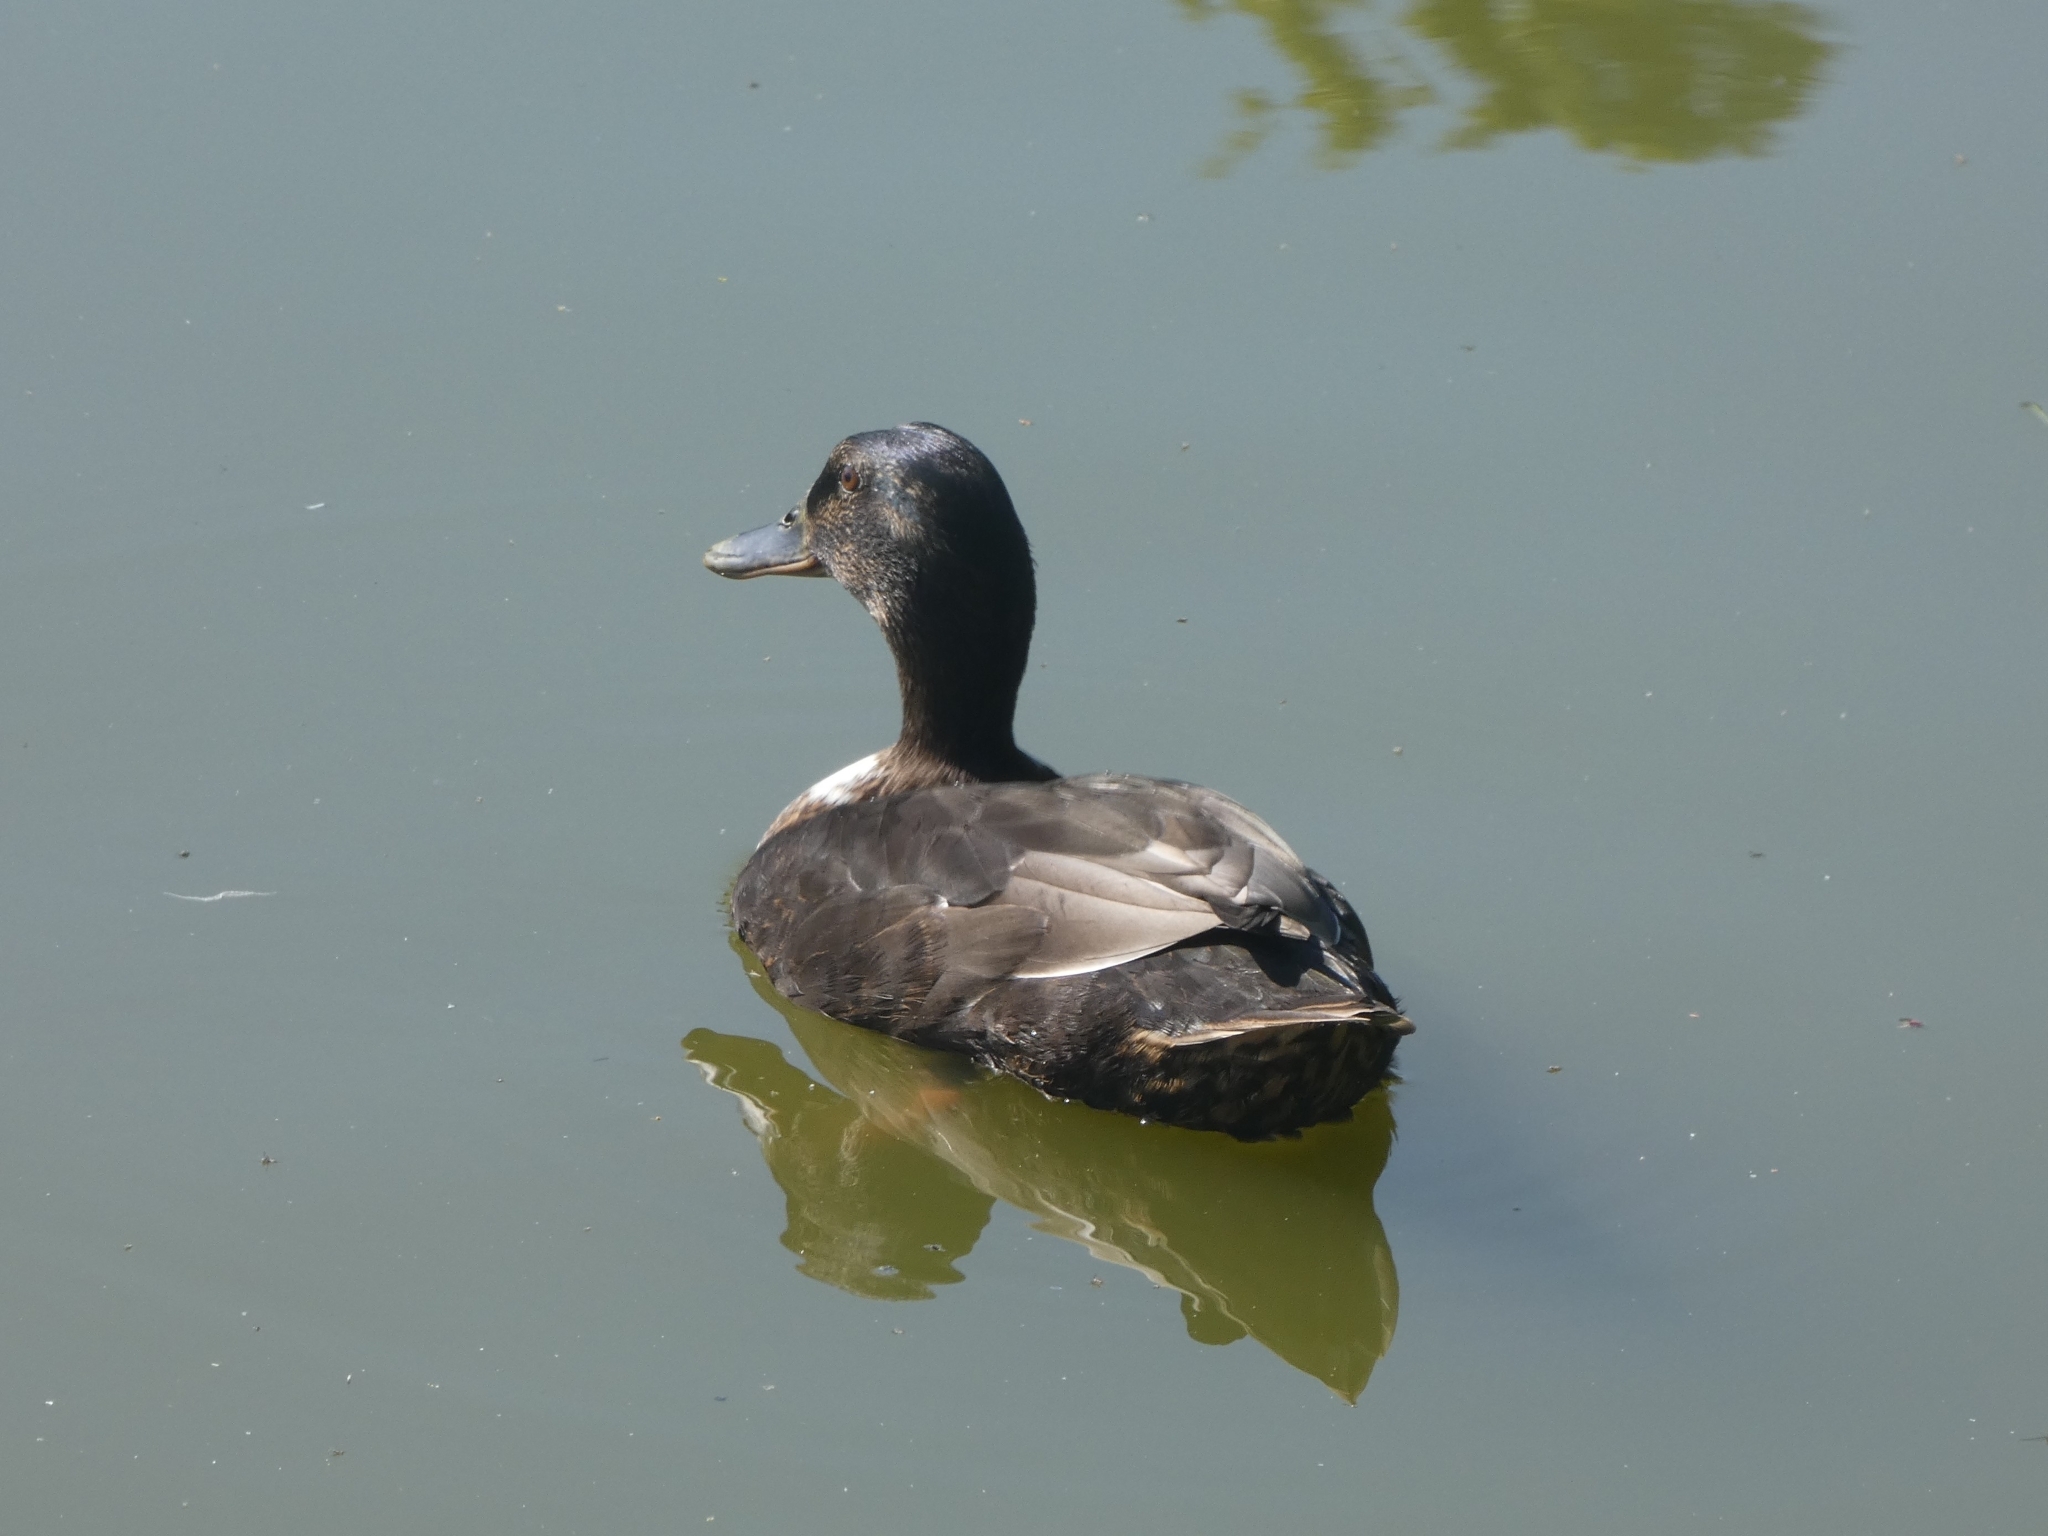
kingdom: Animalia
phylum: Chordata
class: Aves
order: Anseriformes
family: Anatidae
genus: Anas
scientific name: Anas platyrhynchos
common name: Mallard
